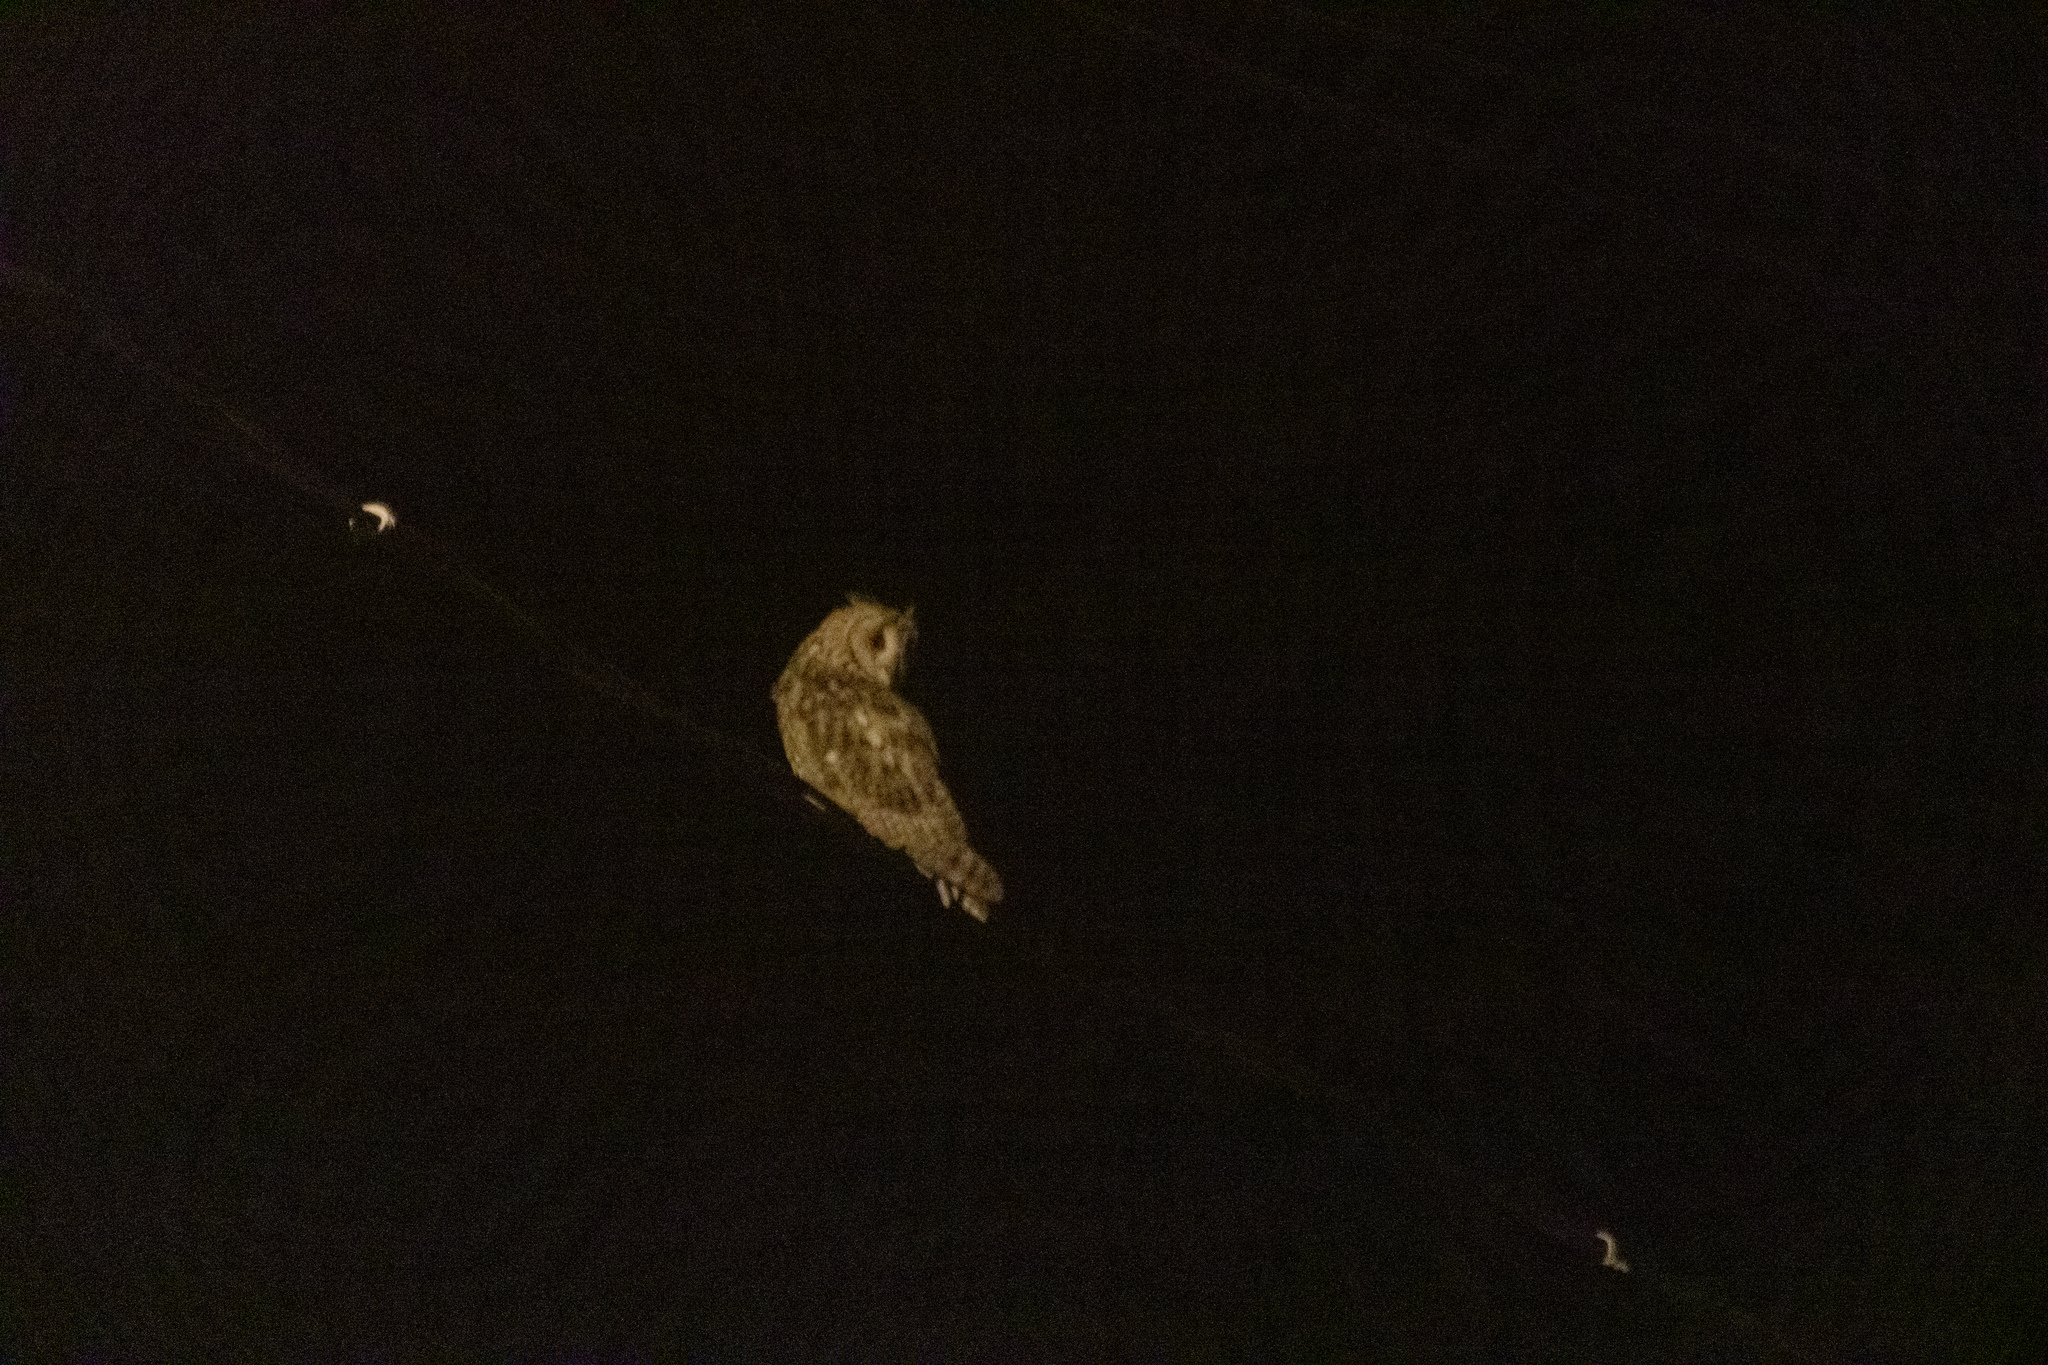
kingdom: Animalia
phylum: Chordata
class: Aves
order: Strigiformes
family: Strigidae
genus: Asio
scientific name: Asio otus
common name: Long-eared owl
